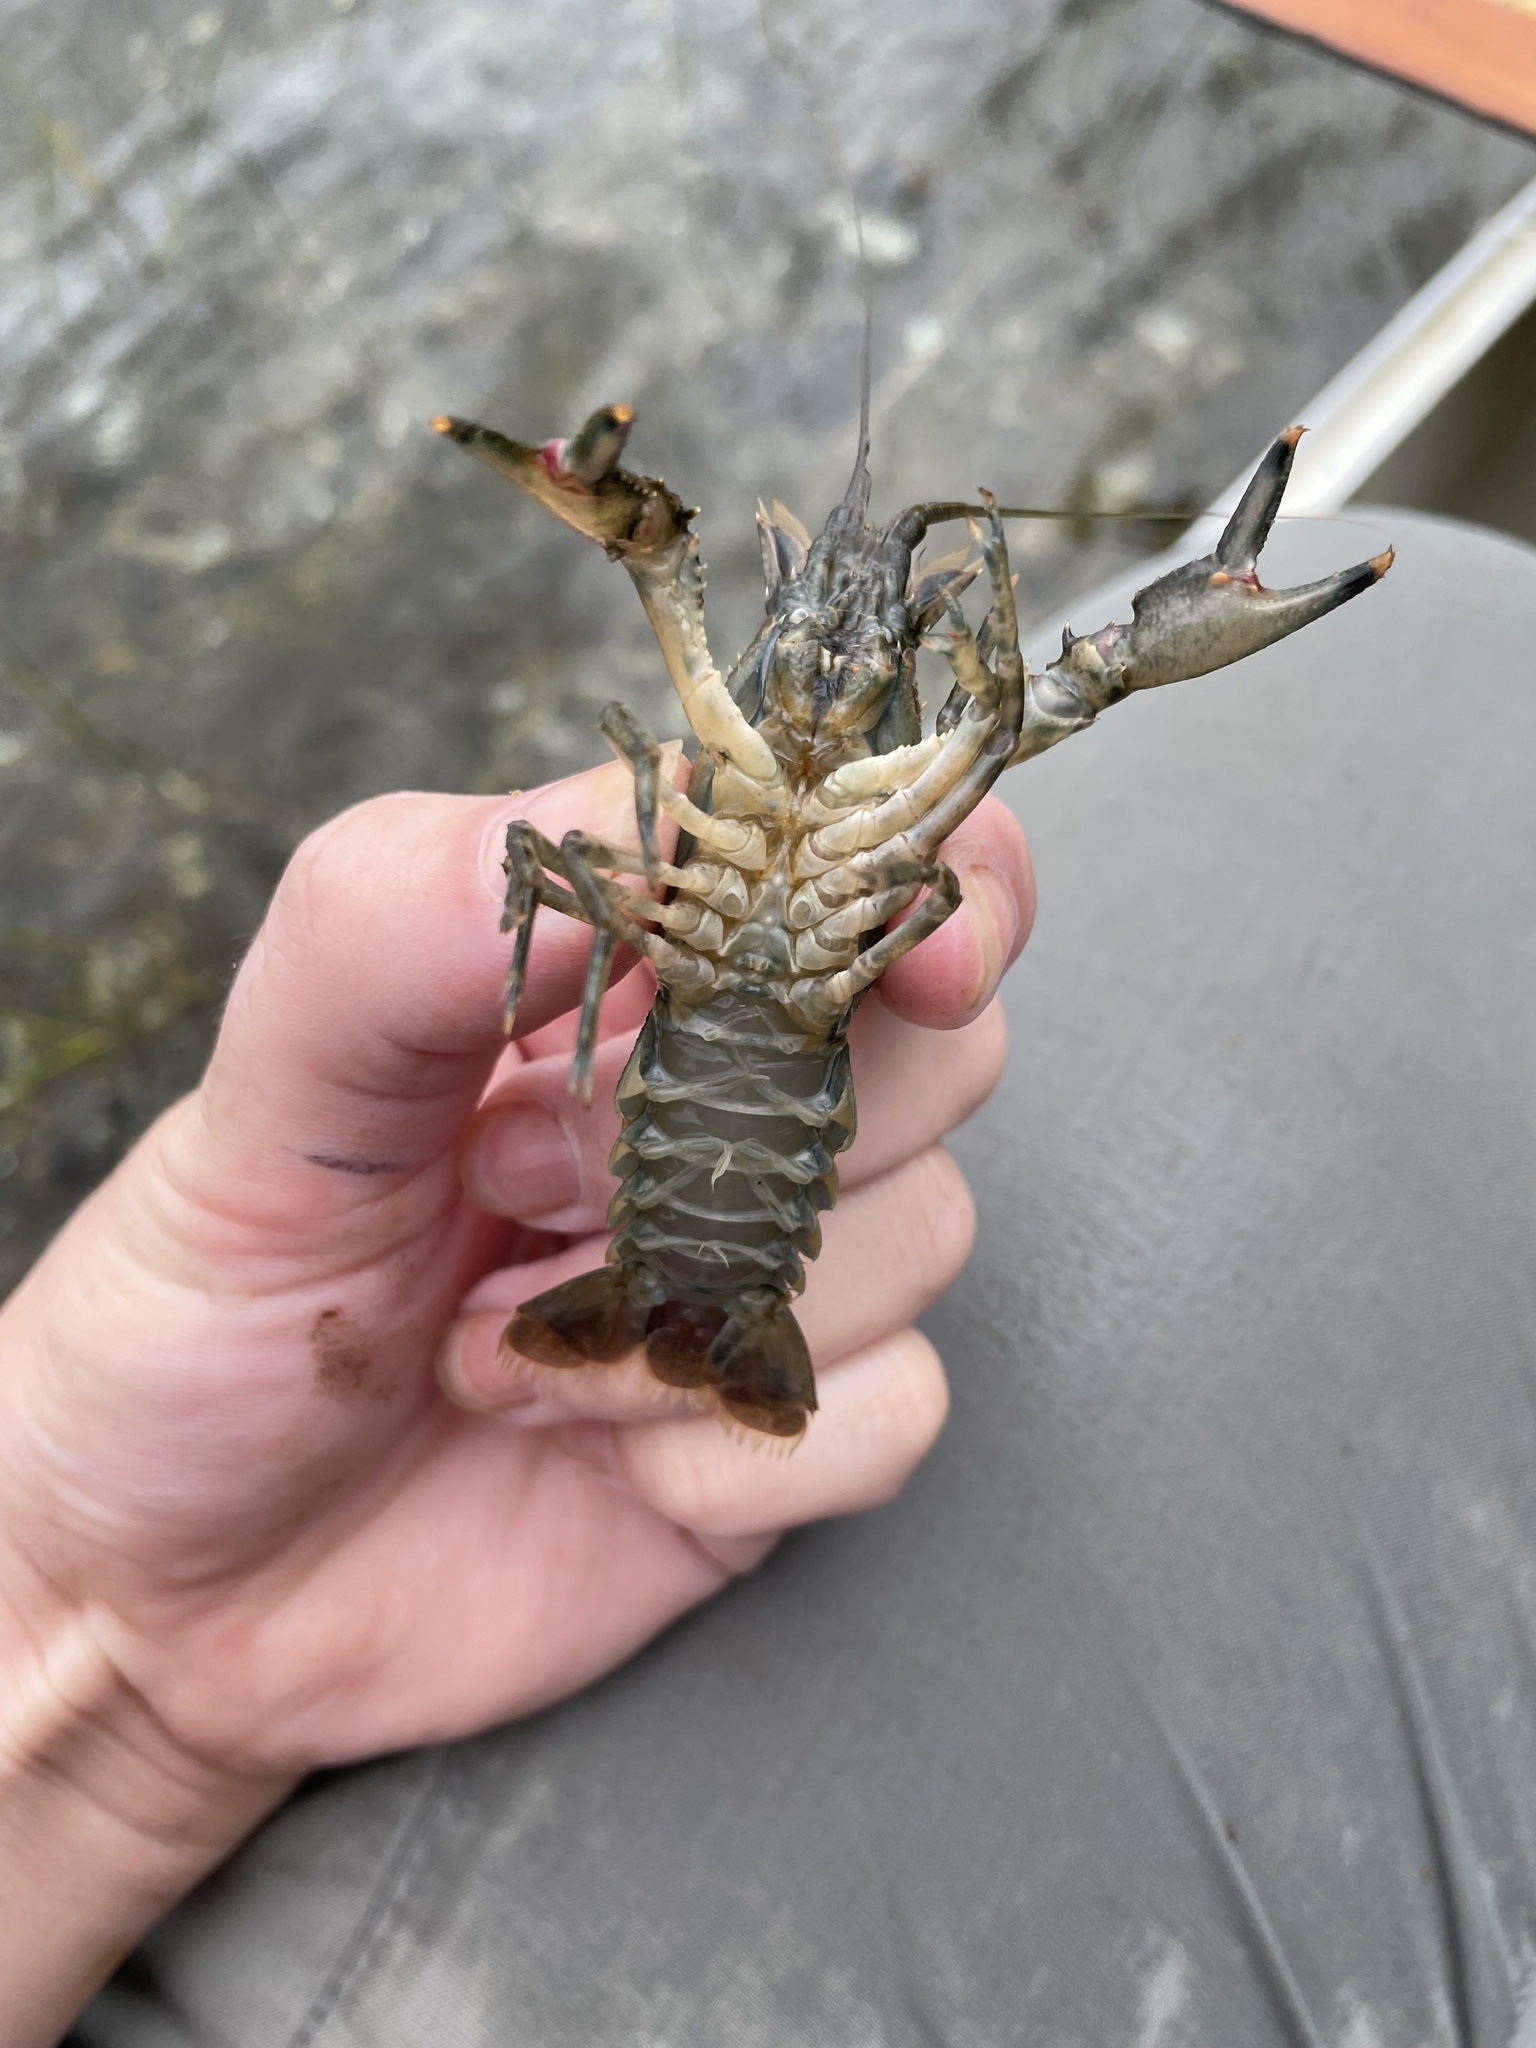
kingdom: Animalia
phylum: Arthropoda
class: Malacostraca
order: Decapoda
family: Cambaridae
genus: Faxonius
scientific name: Faxonius limosus
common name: American crayfish
